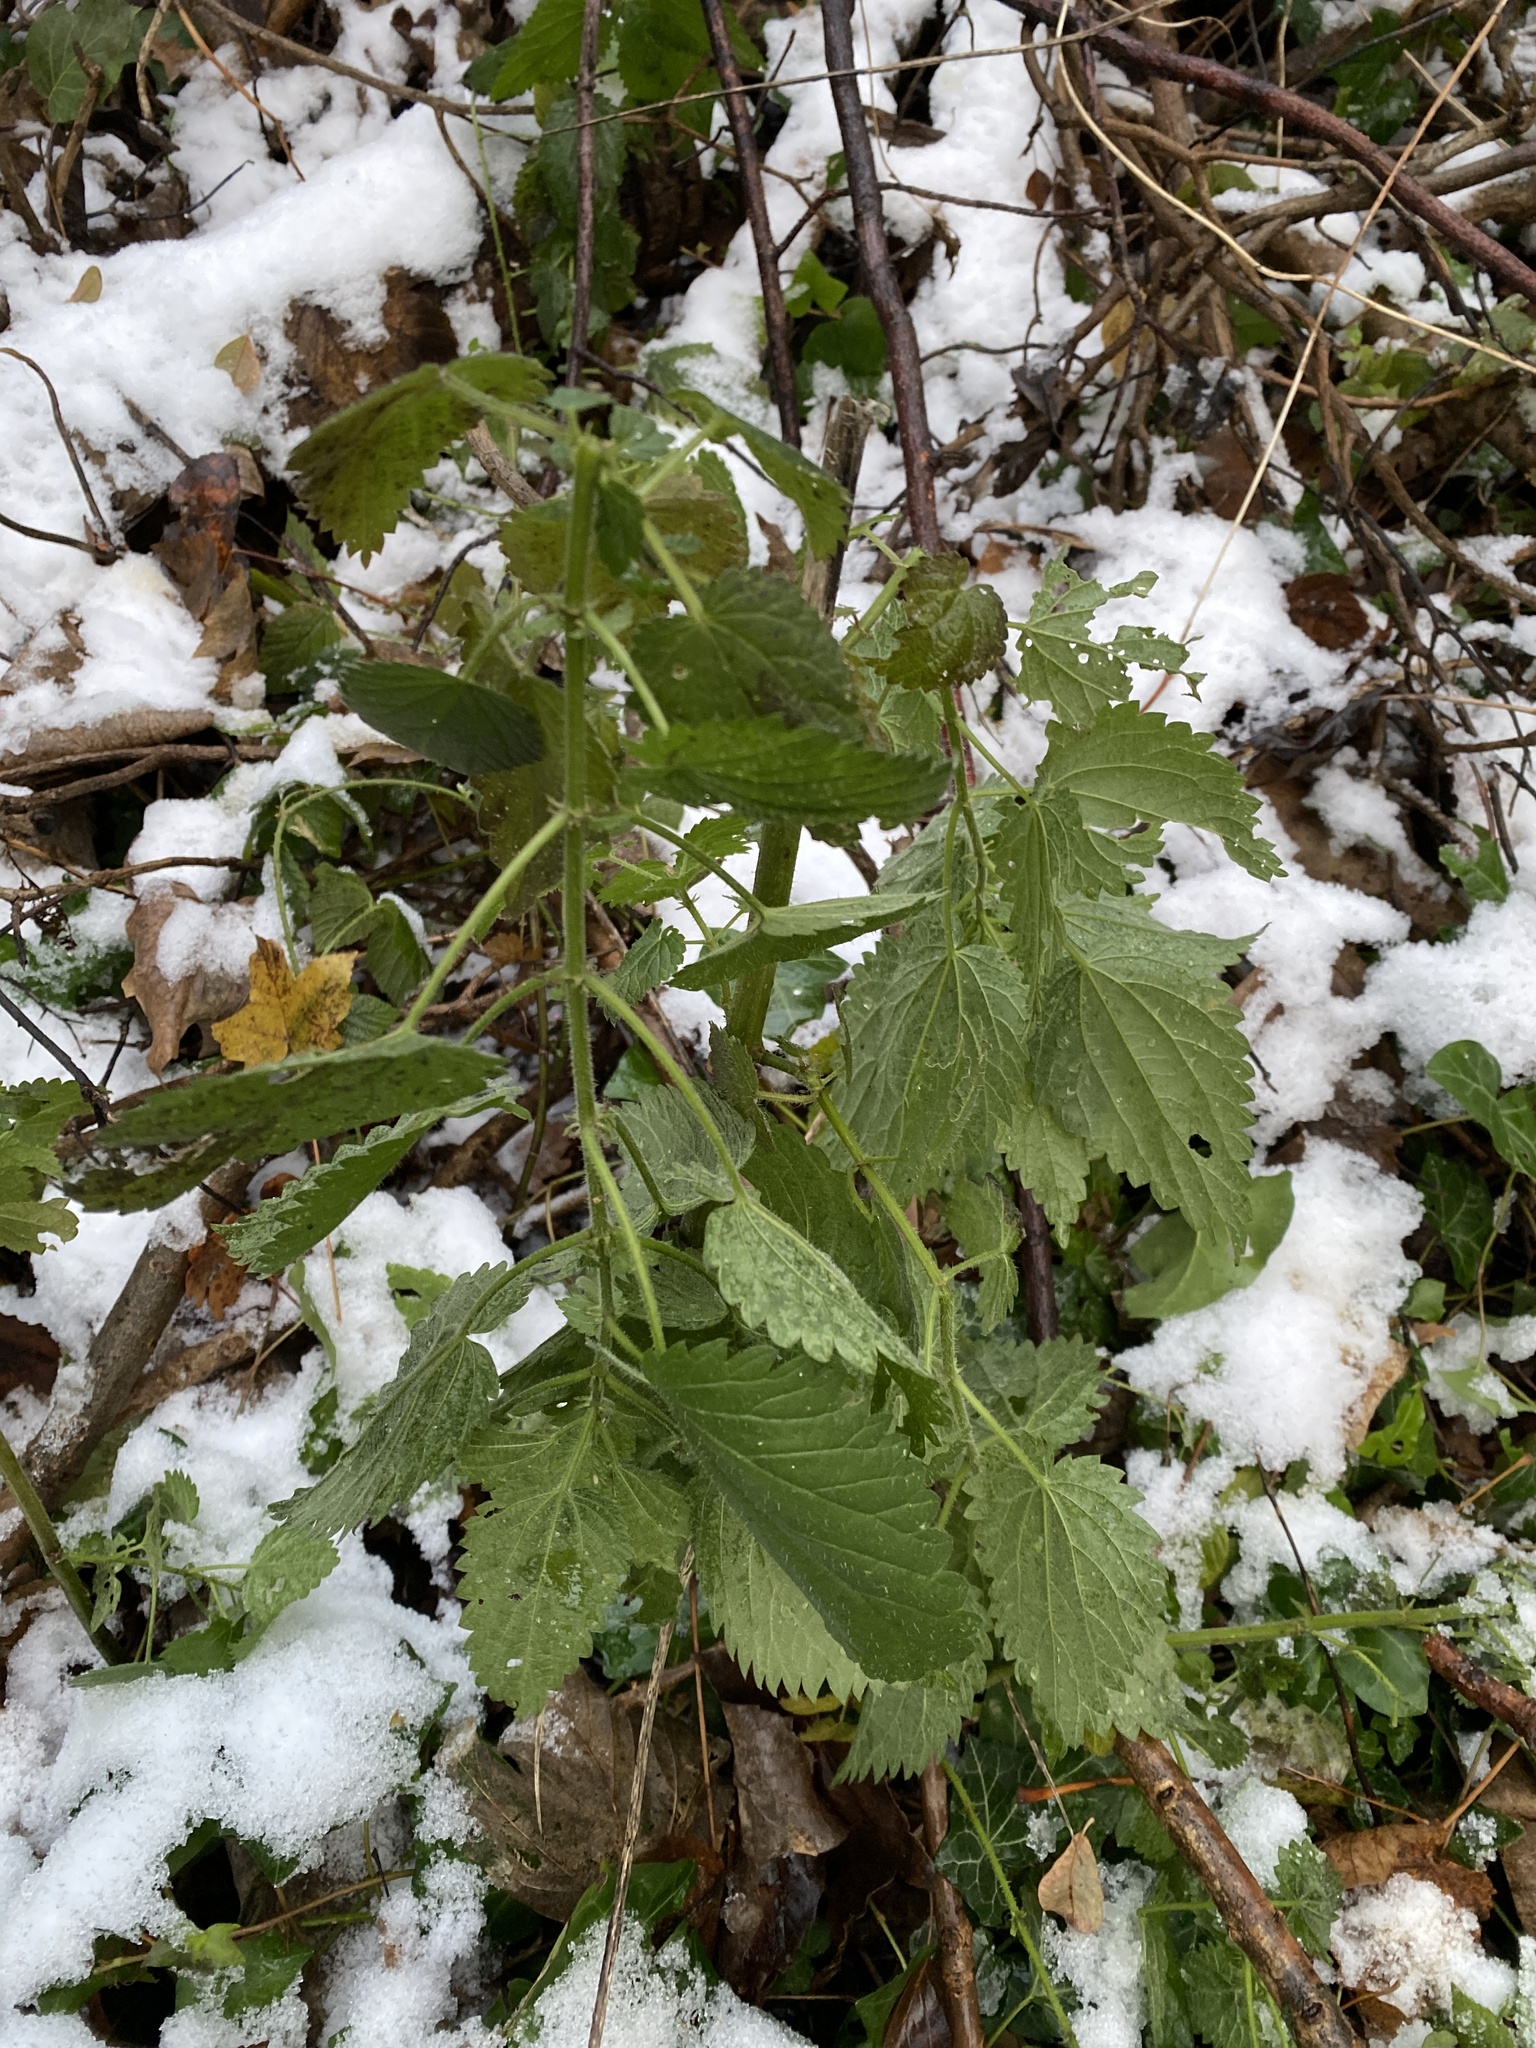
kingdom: Plantae
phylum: Tracheophyta
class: Magnoliopsida
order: Rosales
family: Urticaceae
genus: Urtica
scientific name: Urtica dioica
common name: Common nettle
